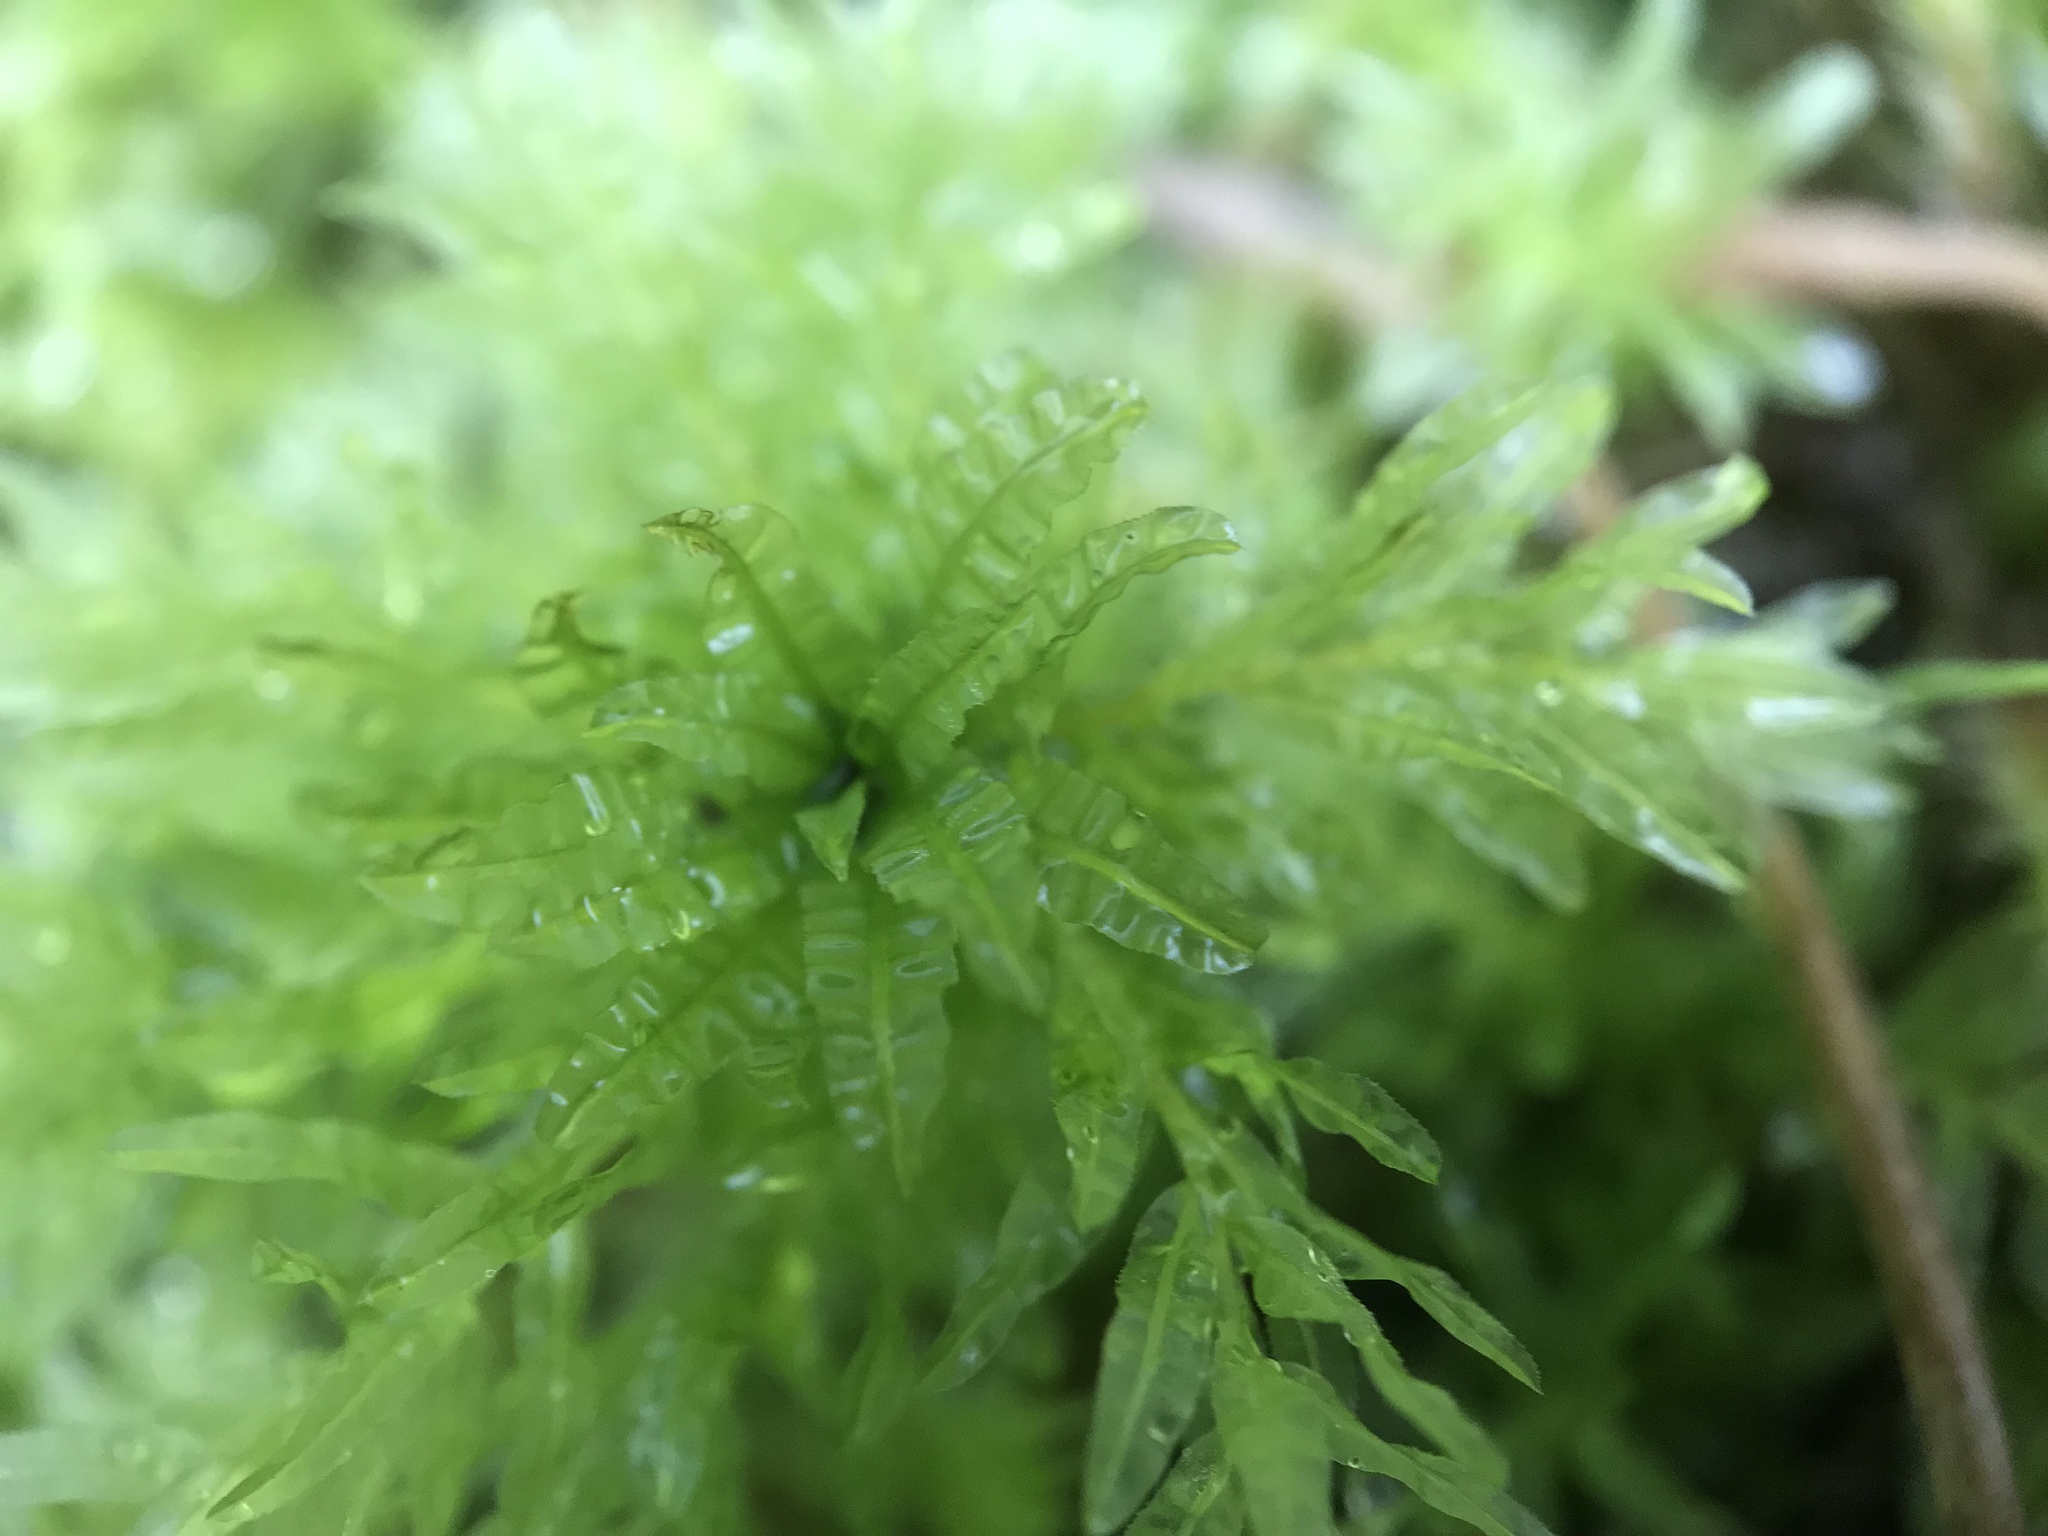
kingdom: Plantae
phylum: Bryophyta
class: Bryopsida
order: Bryales
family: Mniaceae
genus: Plagiomnium
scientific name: Plagiomnium undulatum
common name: Hart's-tongue thyme-moss
